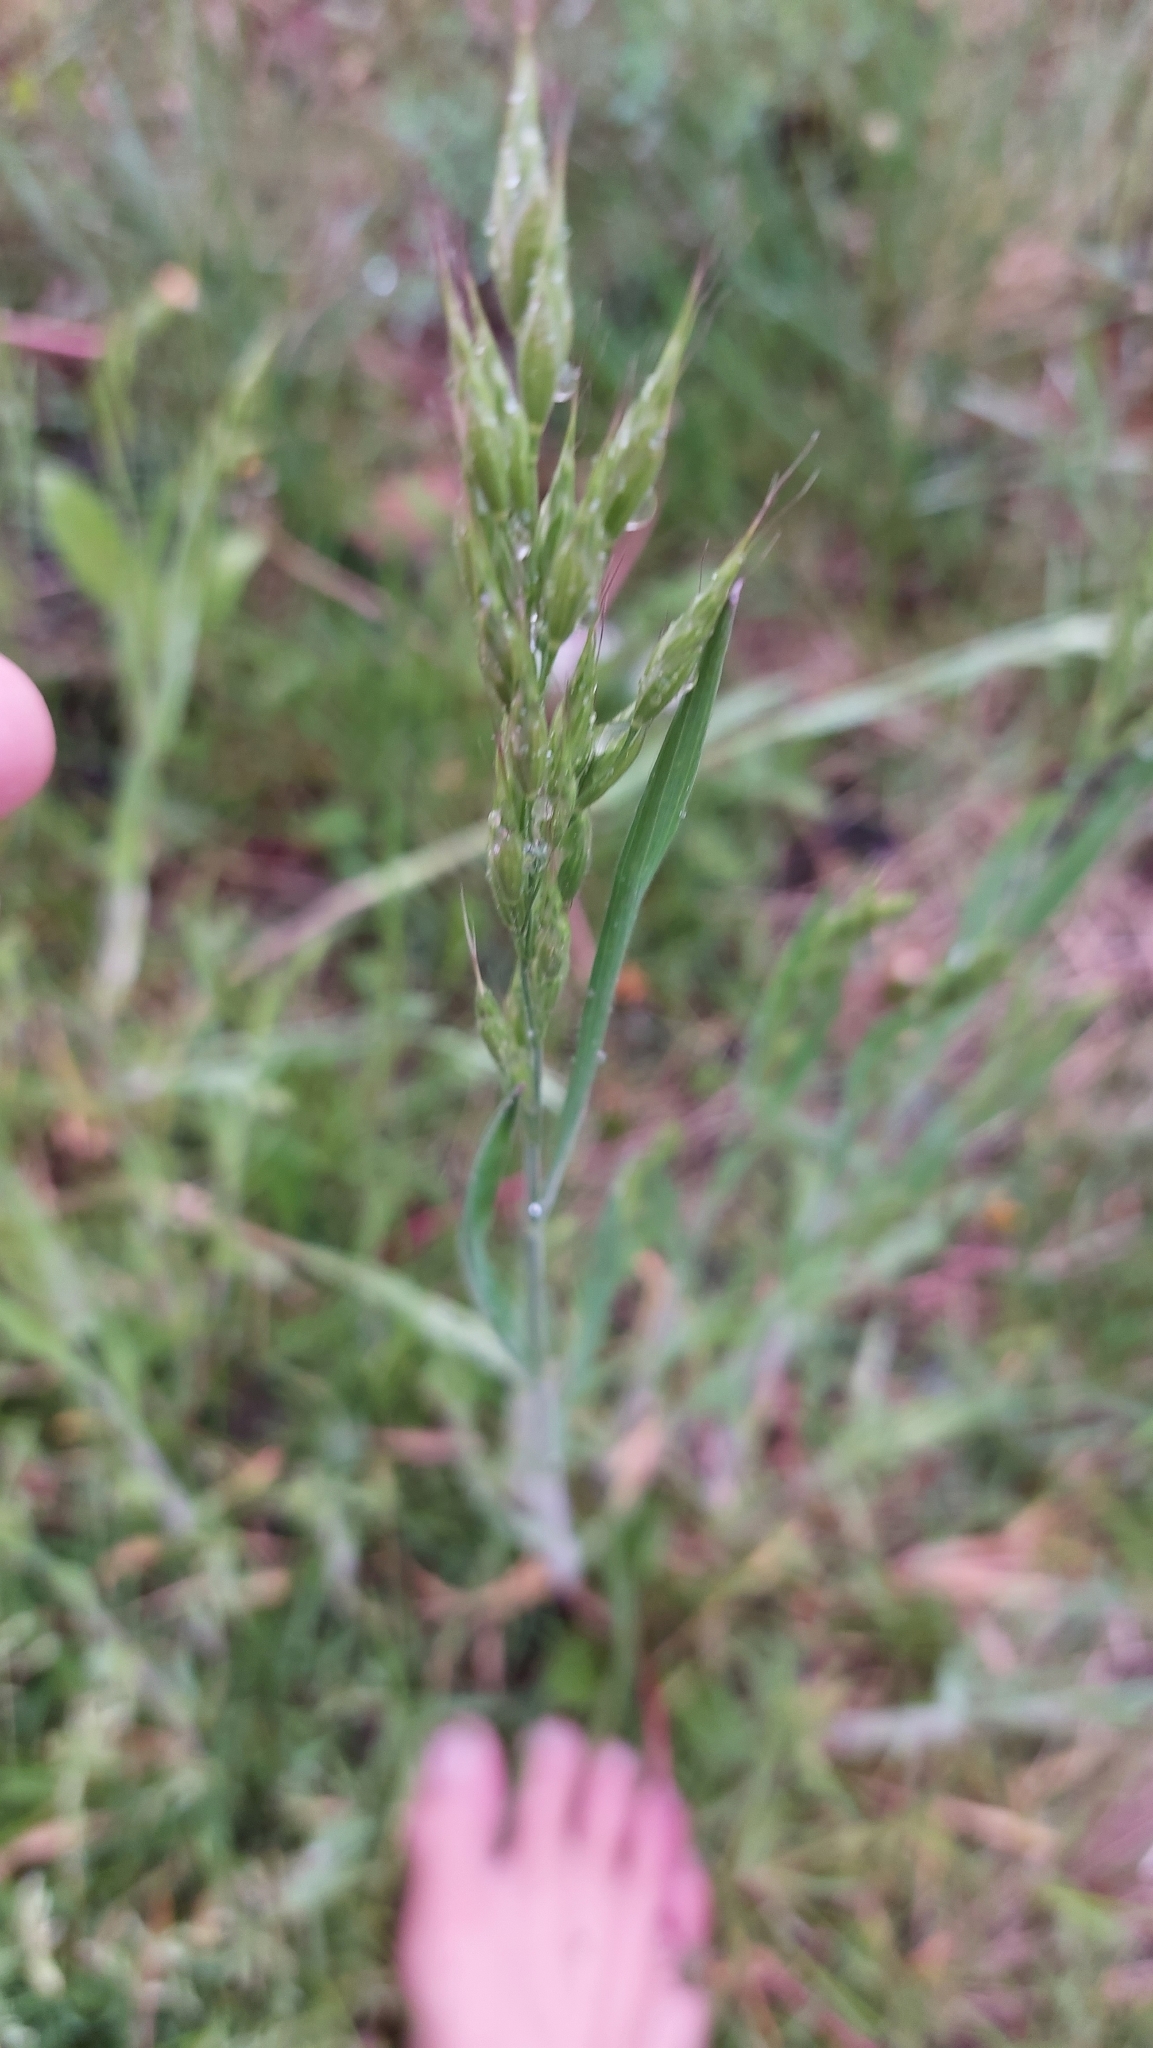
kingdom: Plantae
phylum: Tracheophyta
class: Liliopsida
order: Poales
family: Poaceae
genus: Bromus
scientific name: Bromus hordeaceus
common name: Soft brome
